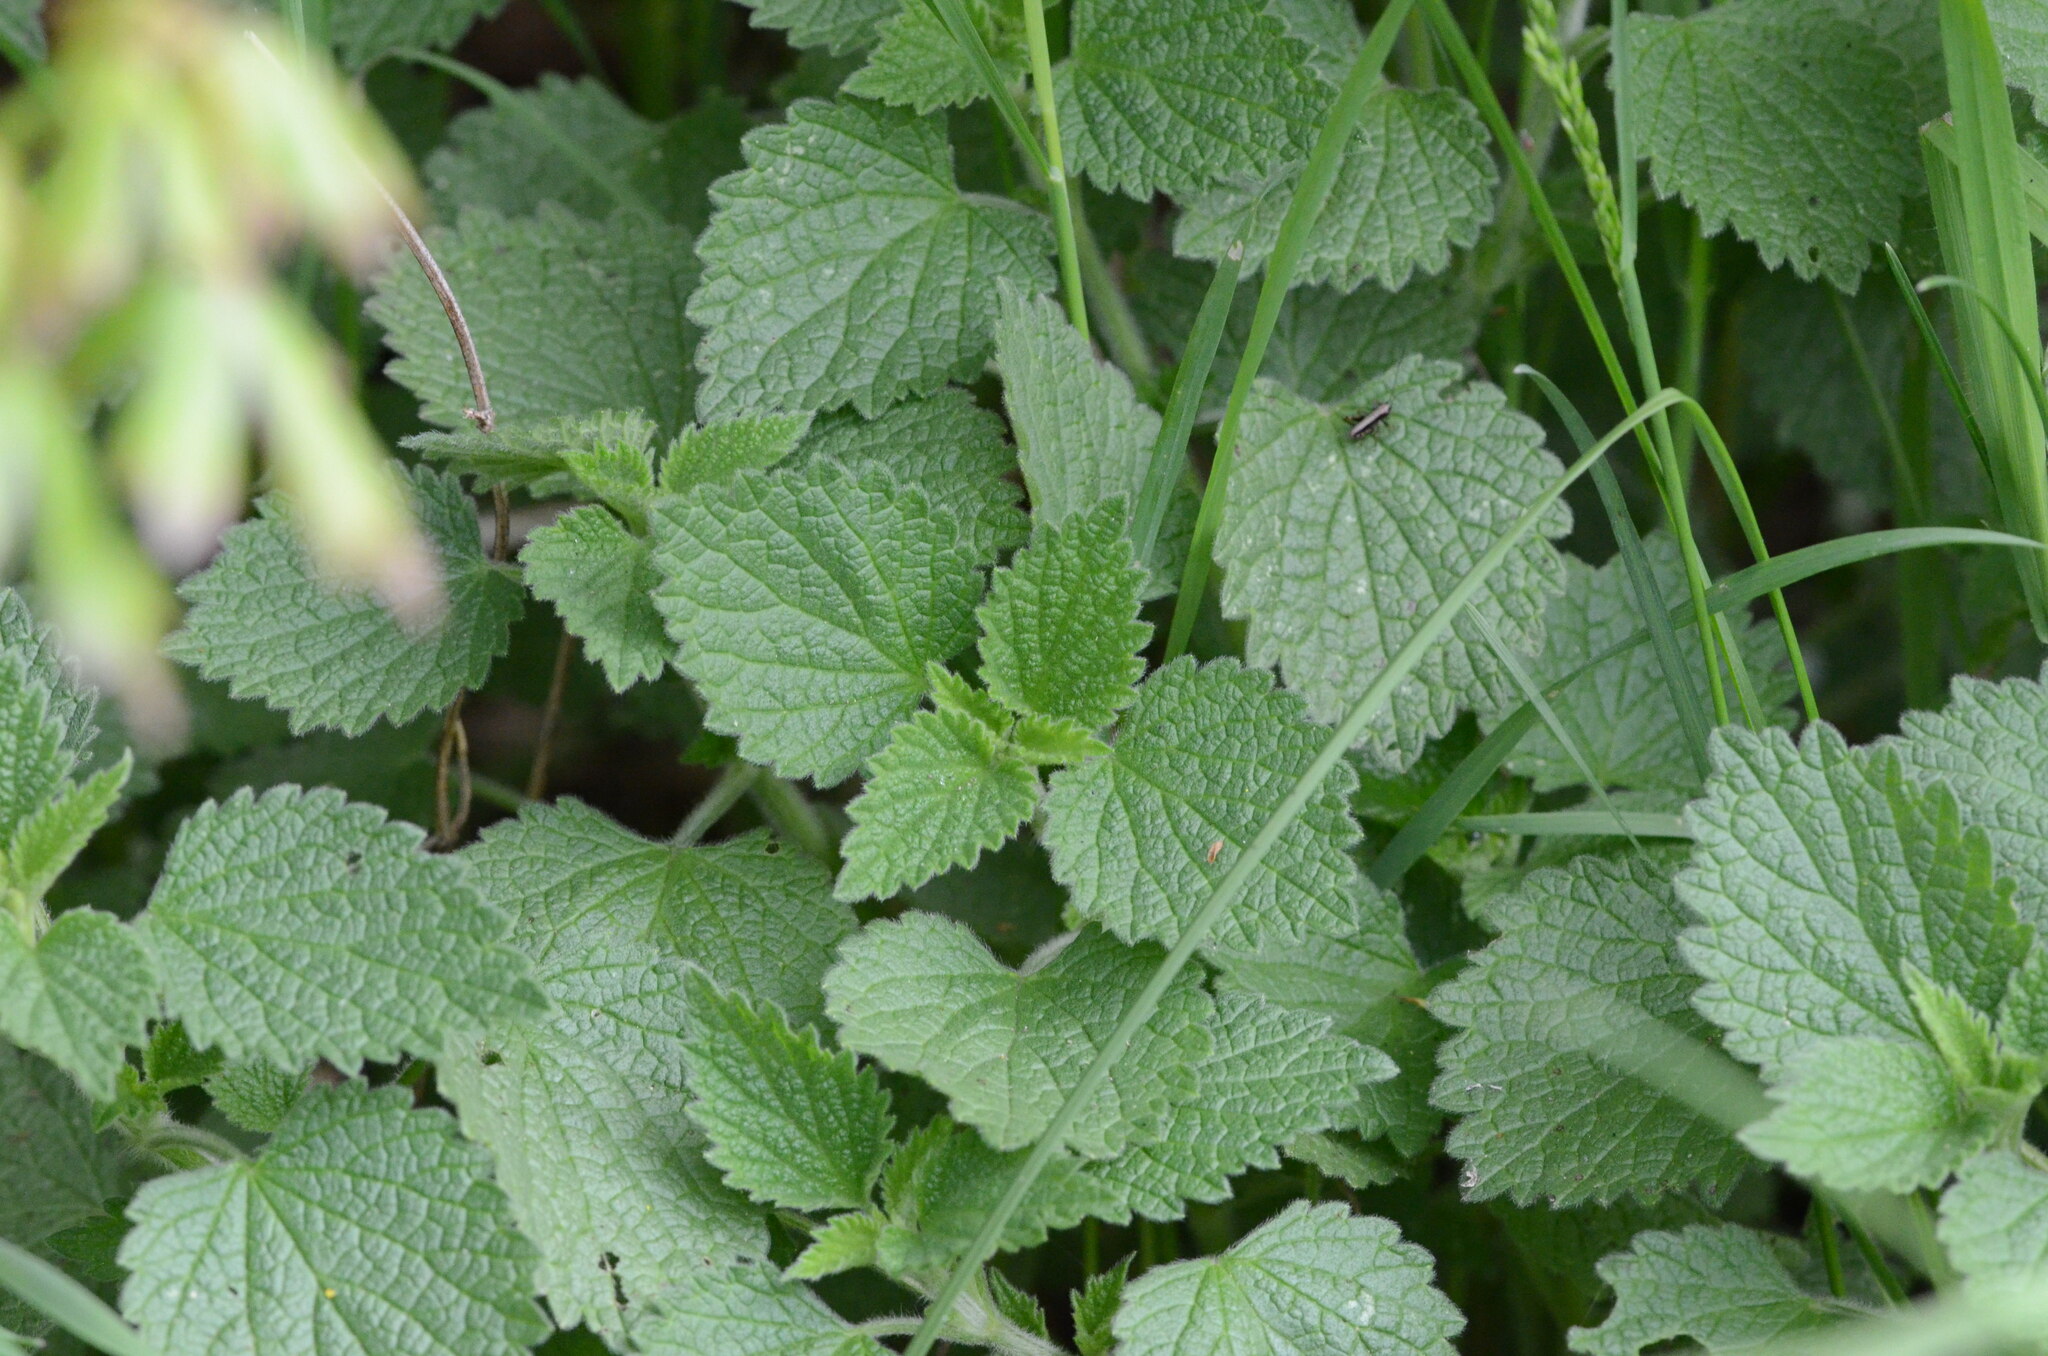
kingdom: Plantae
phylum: Tracheophyta
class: Magnoliopsida
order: Lamiales
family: Lamiaceae
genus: Ballota
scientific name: Ballota nigra
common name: Black horehound
